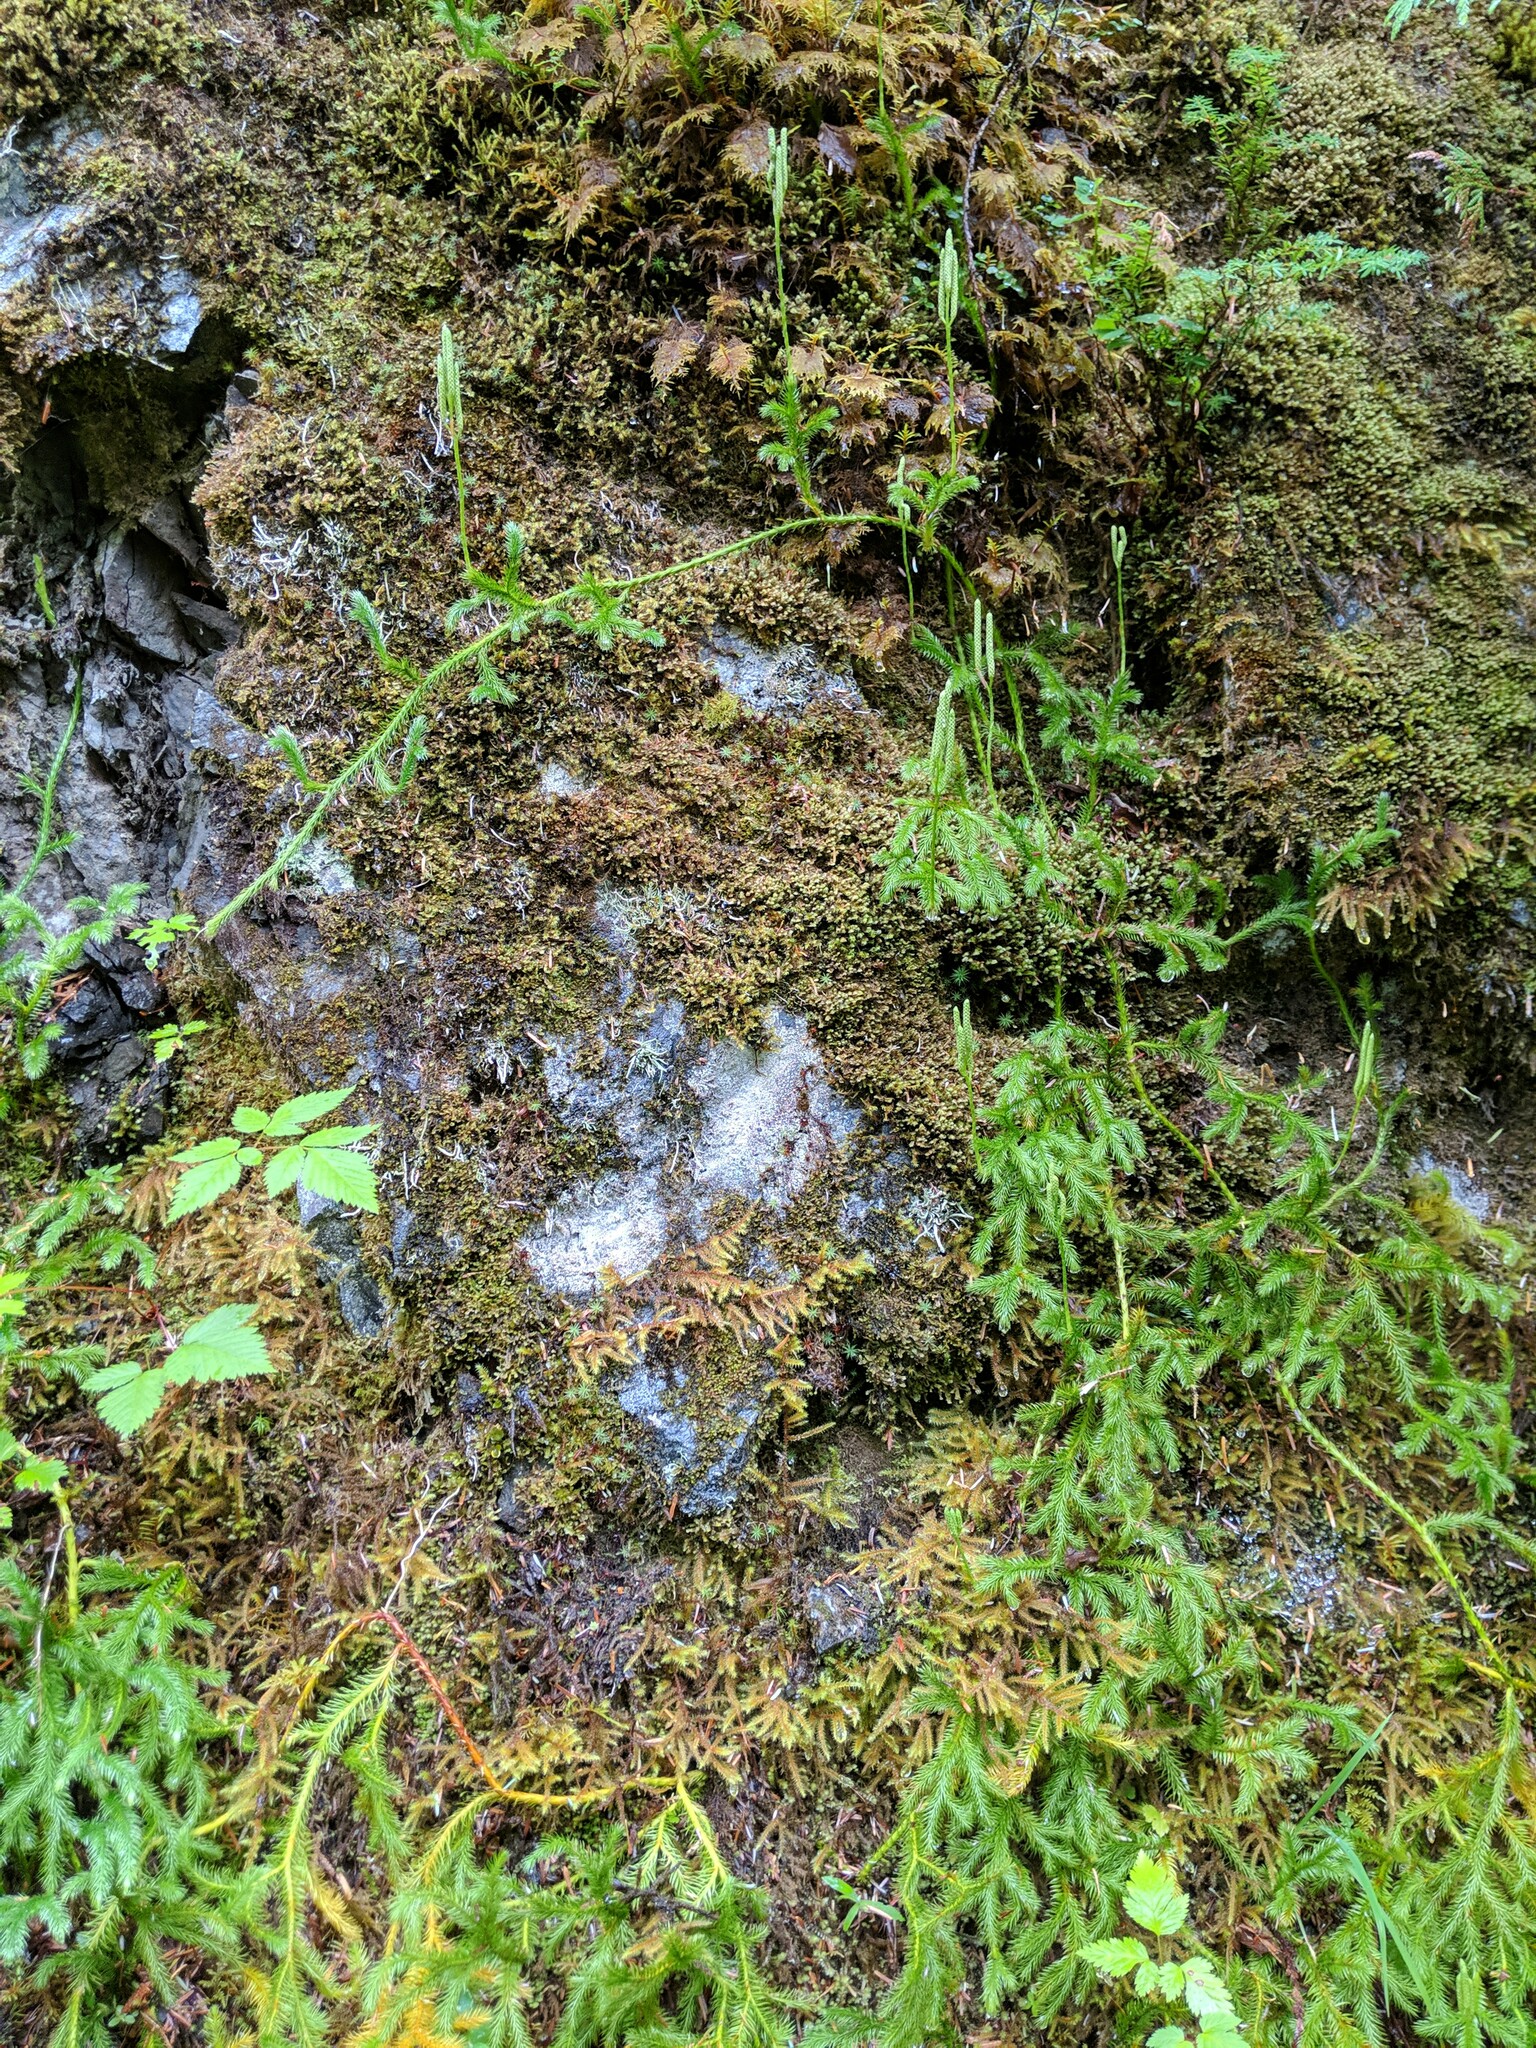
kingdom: Plantae
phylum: Tracheophyta
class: Lycopodiopsida
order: Lycopodiales
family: Lycopodiaceae
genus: Lycopodium
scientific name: Lycopodium clavatum
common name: Stag's-horn clubmoss
